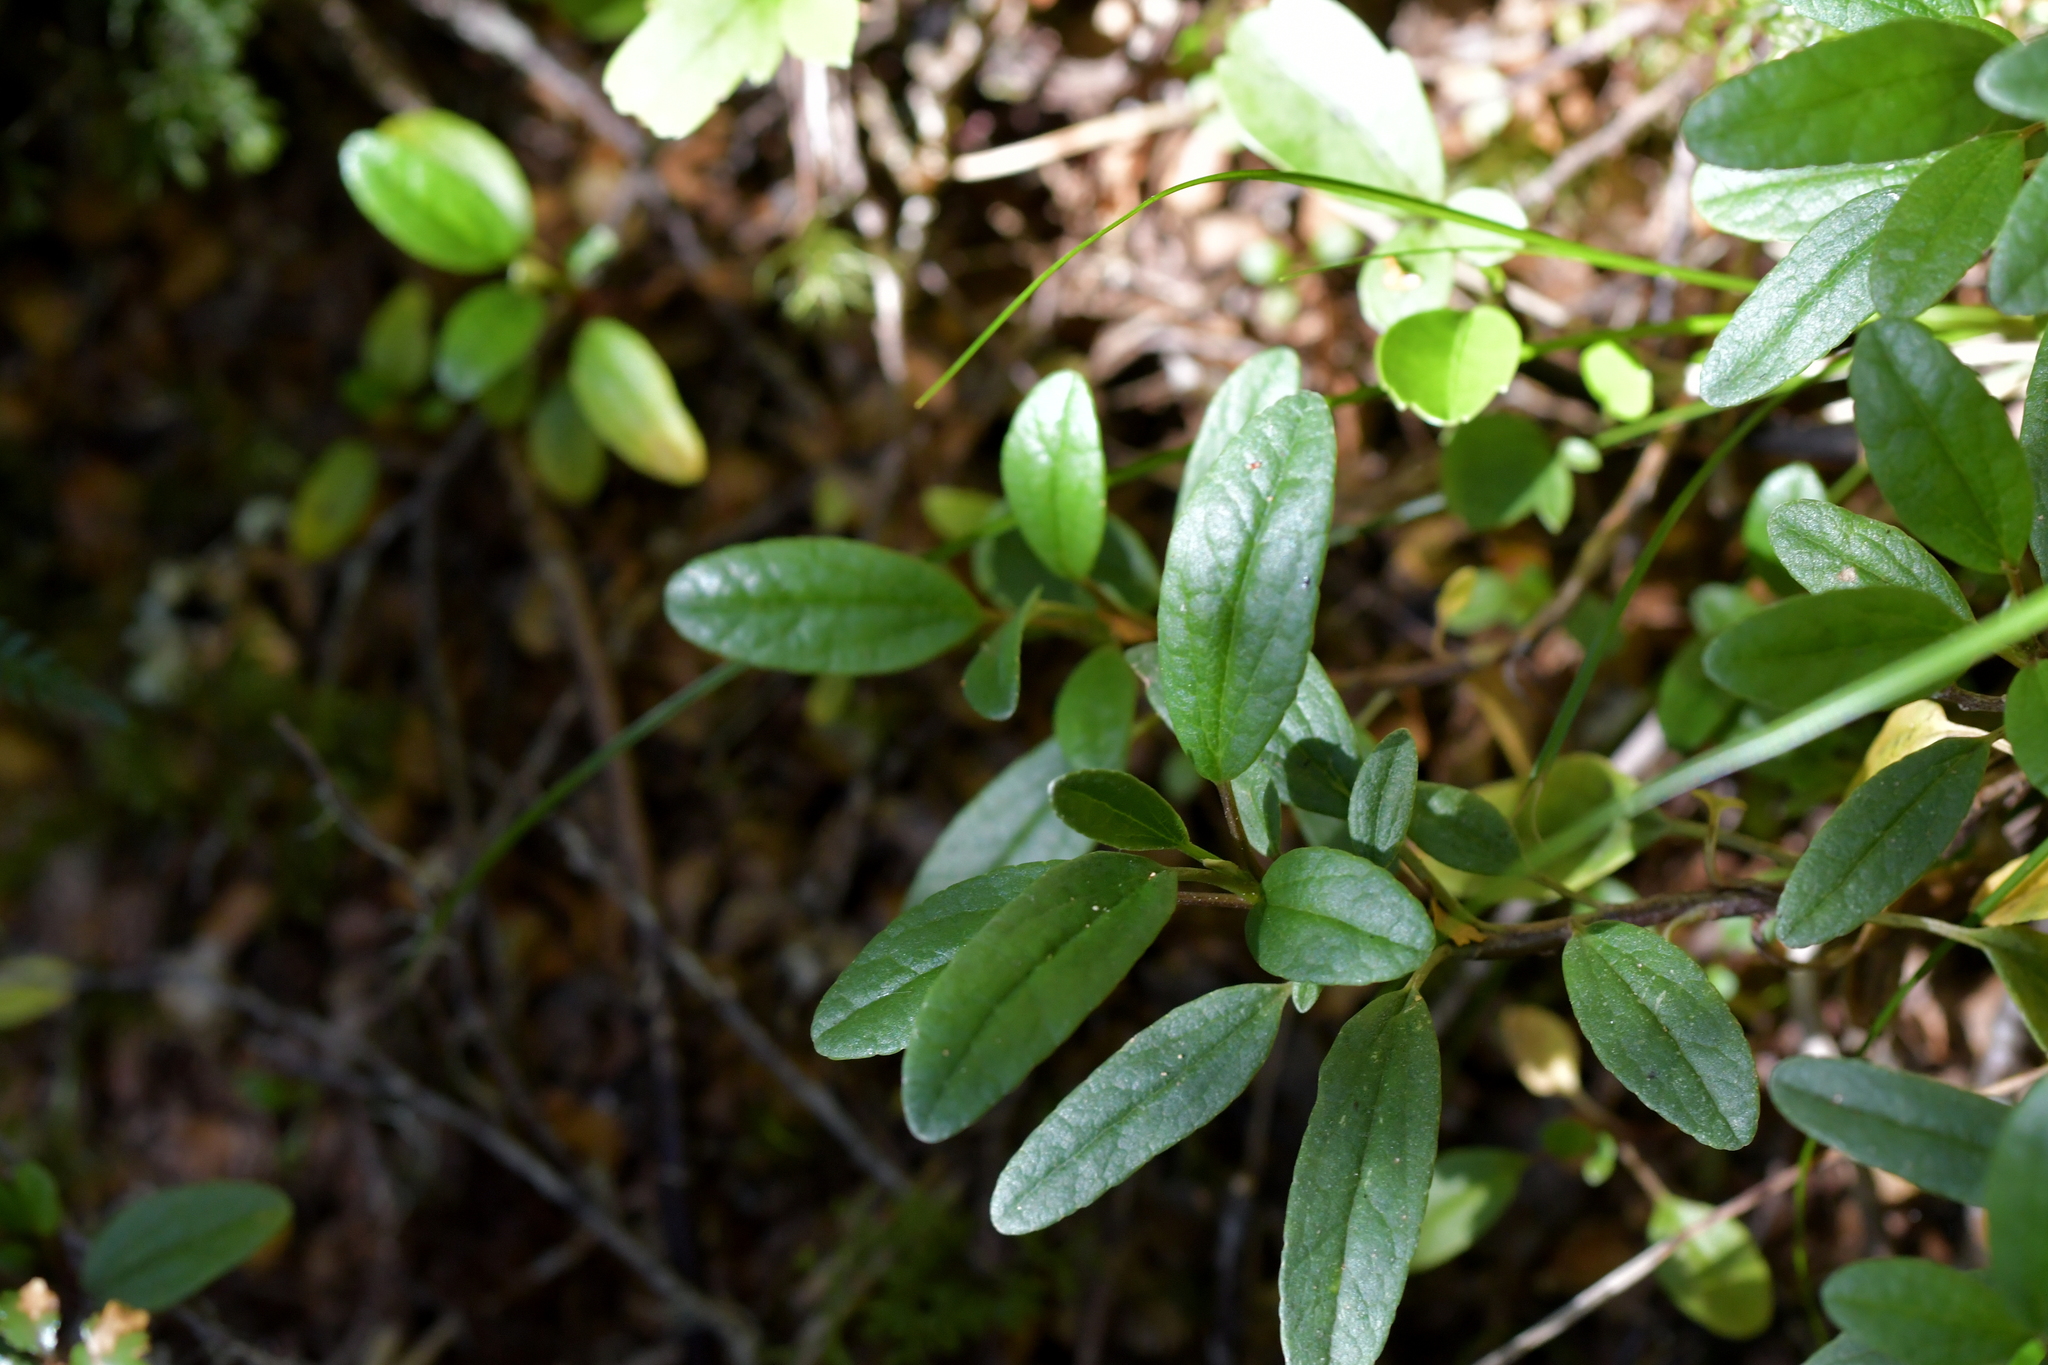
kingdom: Plantae
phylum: Tracheophyta
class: Magnoliopsida
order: Asterales
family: Asteraceae
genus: Brachyglottis
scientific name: Brachyglottis revoluta
